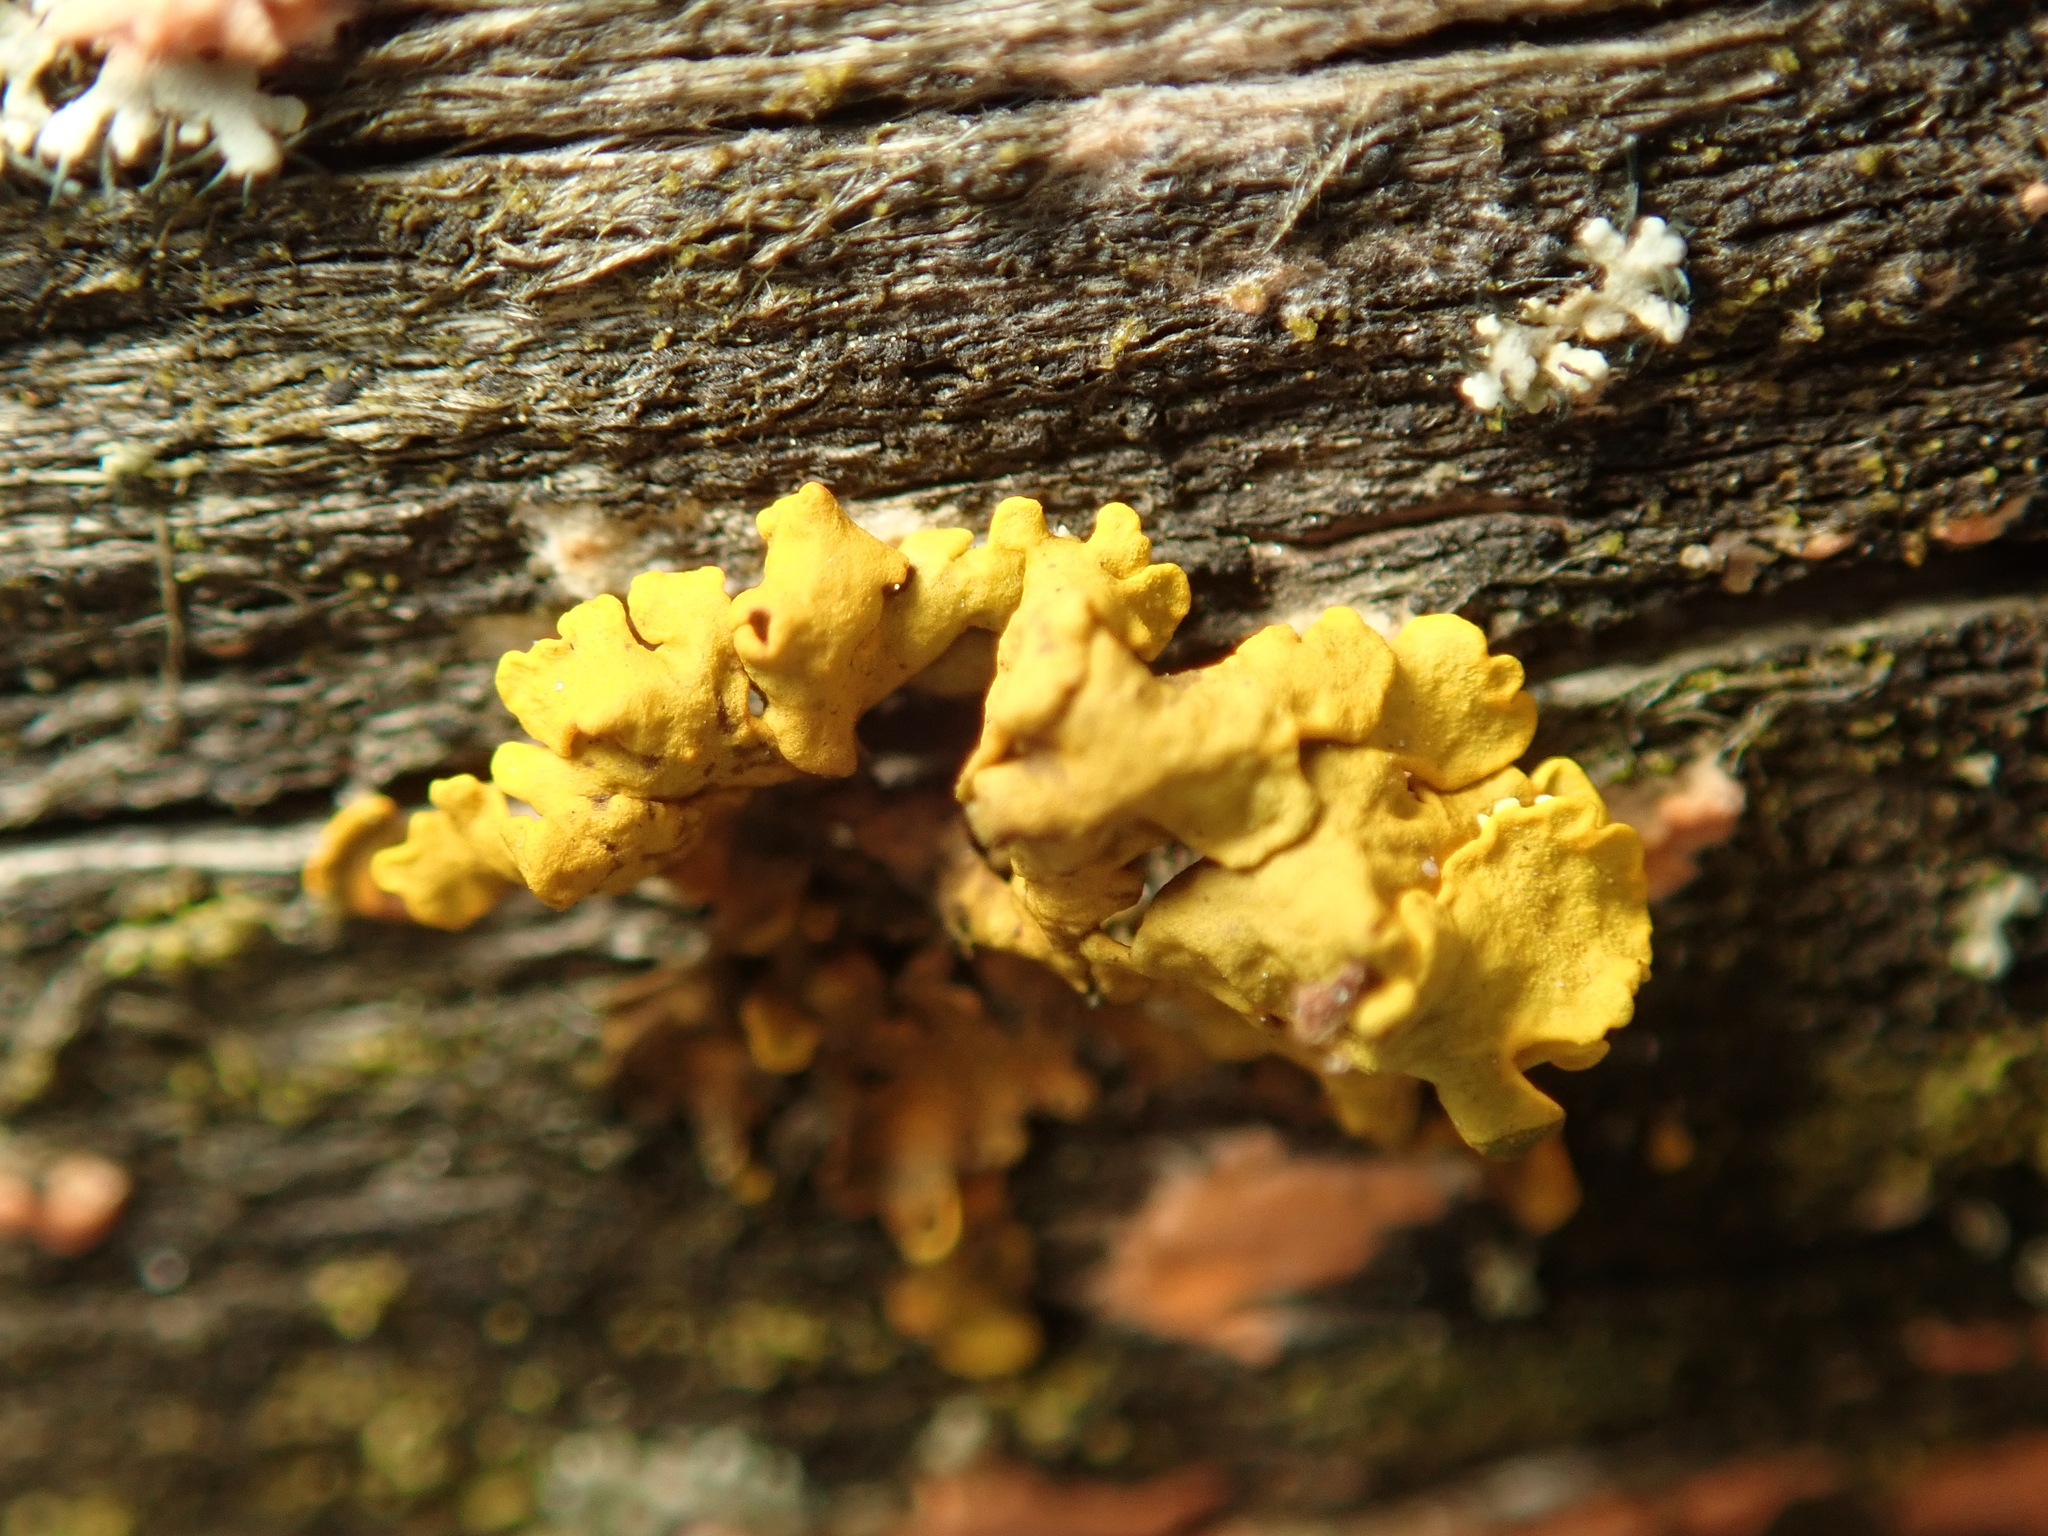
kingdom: Fungi
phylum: Ascomycota
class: Lecanoromycetes
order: Teloschistales
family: Teloschistaceae
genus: Xanthoria
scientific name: Xanthoria parietina
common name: Common orange lichen
